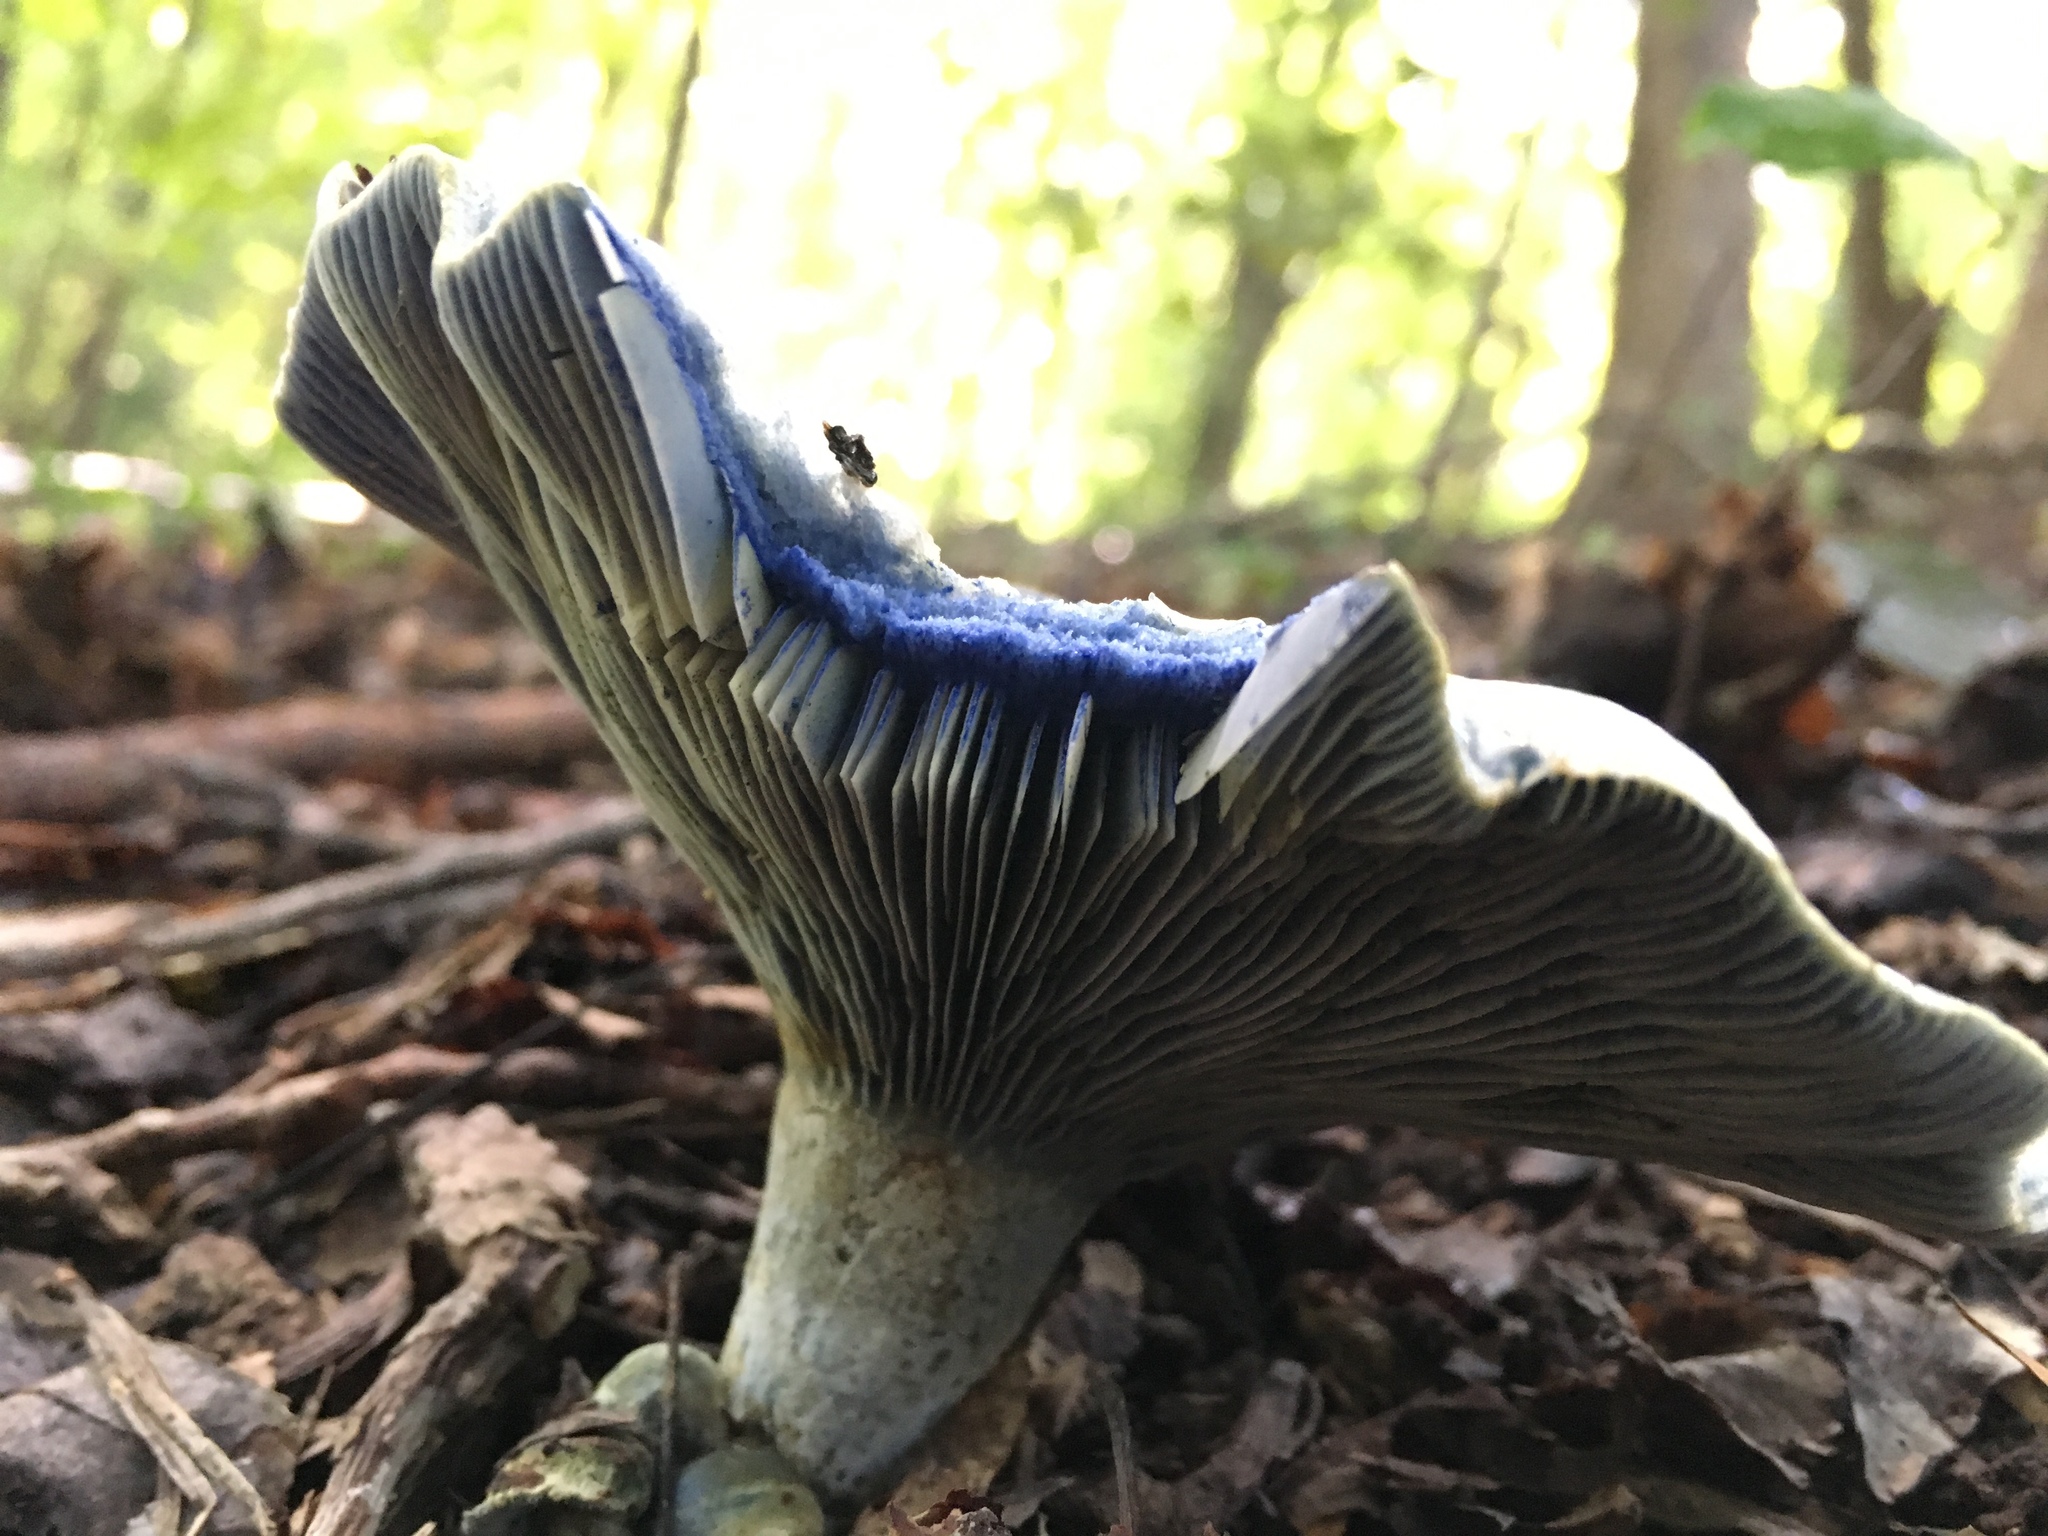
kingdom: Fungi
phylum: Basidiomycota
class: Agaricomycetes
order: Russulales
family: Russulaceae
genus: Lactarius
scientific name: Lactarius indigo
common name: Indigo milk cap
